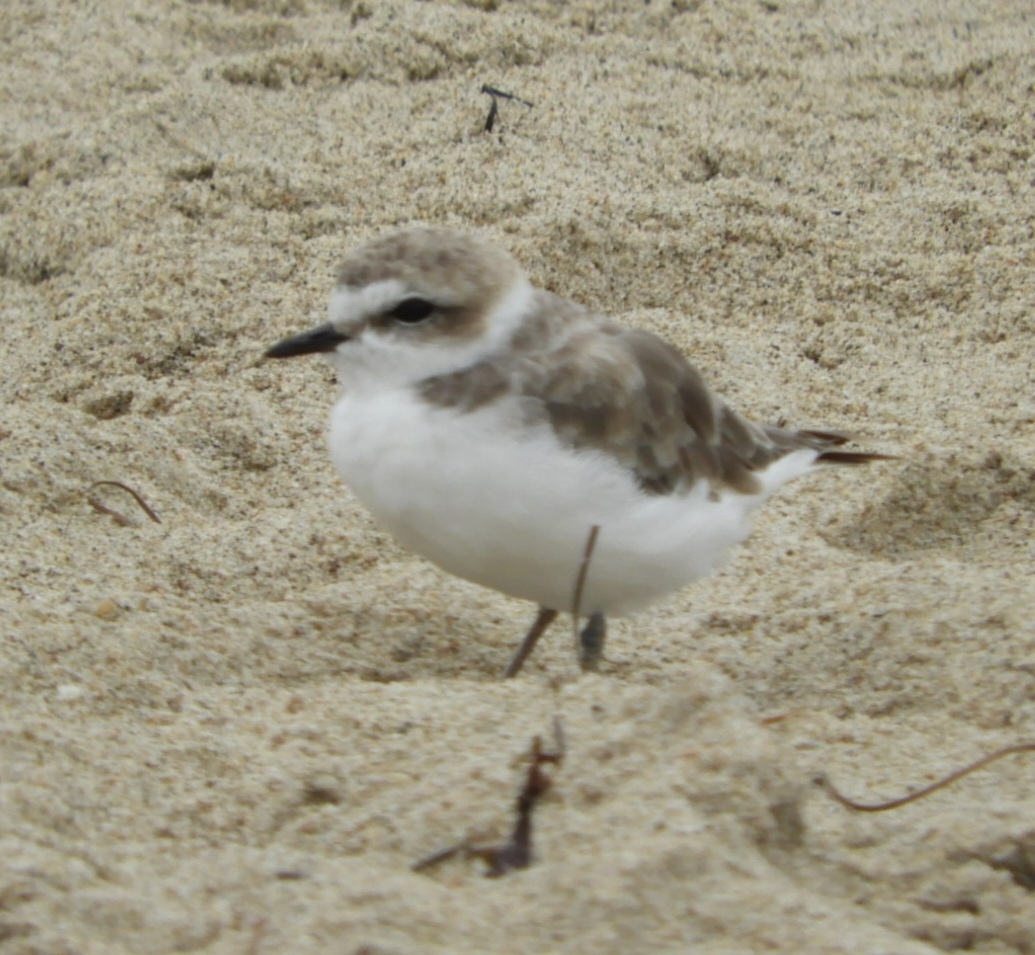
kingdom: Animalia
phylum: Chordata
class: Aves
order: Charadriiformes
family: Charadriidae
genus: Anarhynchus
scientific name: Anarhynchus
